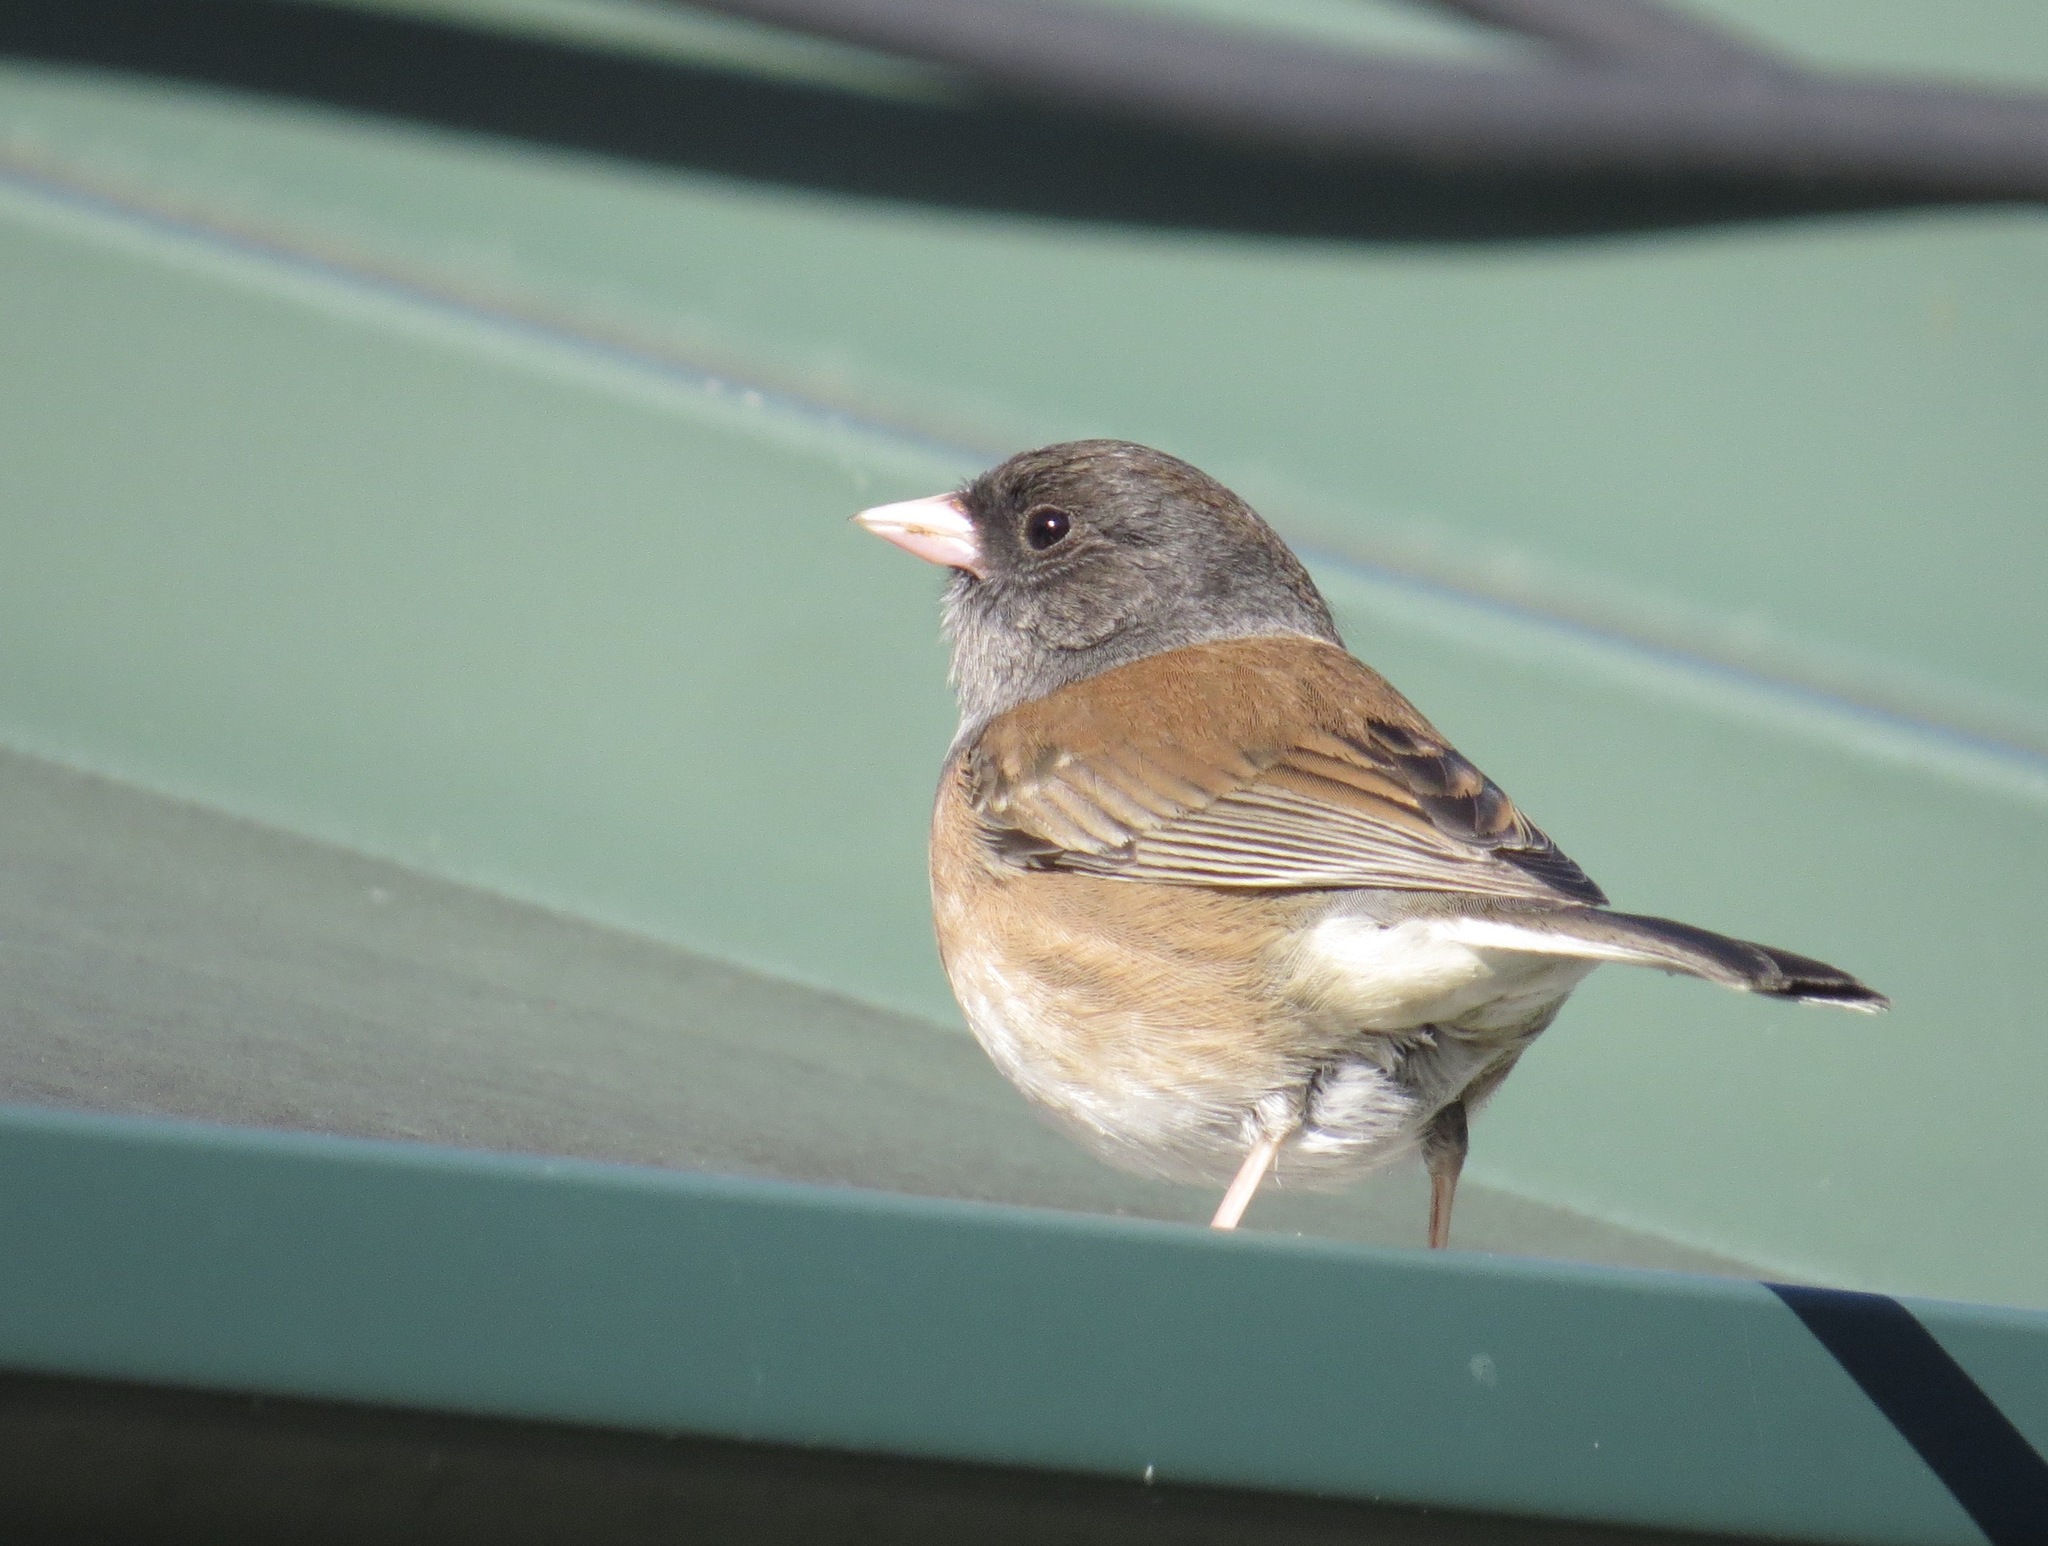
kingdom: Animalia
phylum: Chordata
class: Aves
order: Passeriformes
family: Passerellidae
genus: Junco
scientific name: Junco hyemalis
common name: Dark-eyed junco
